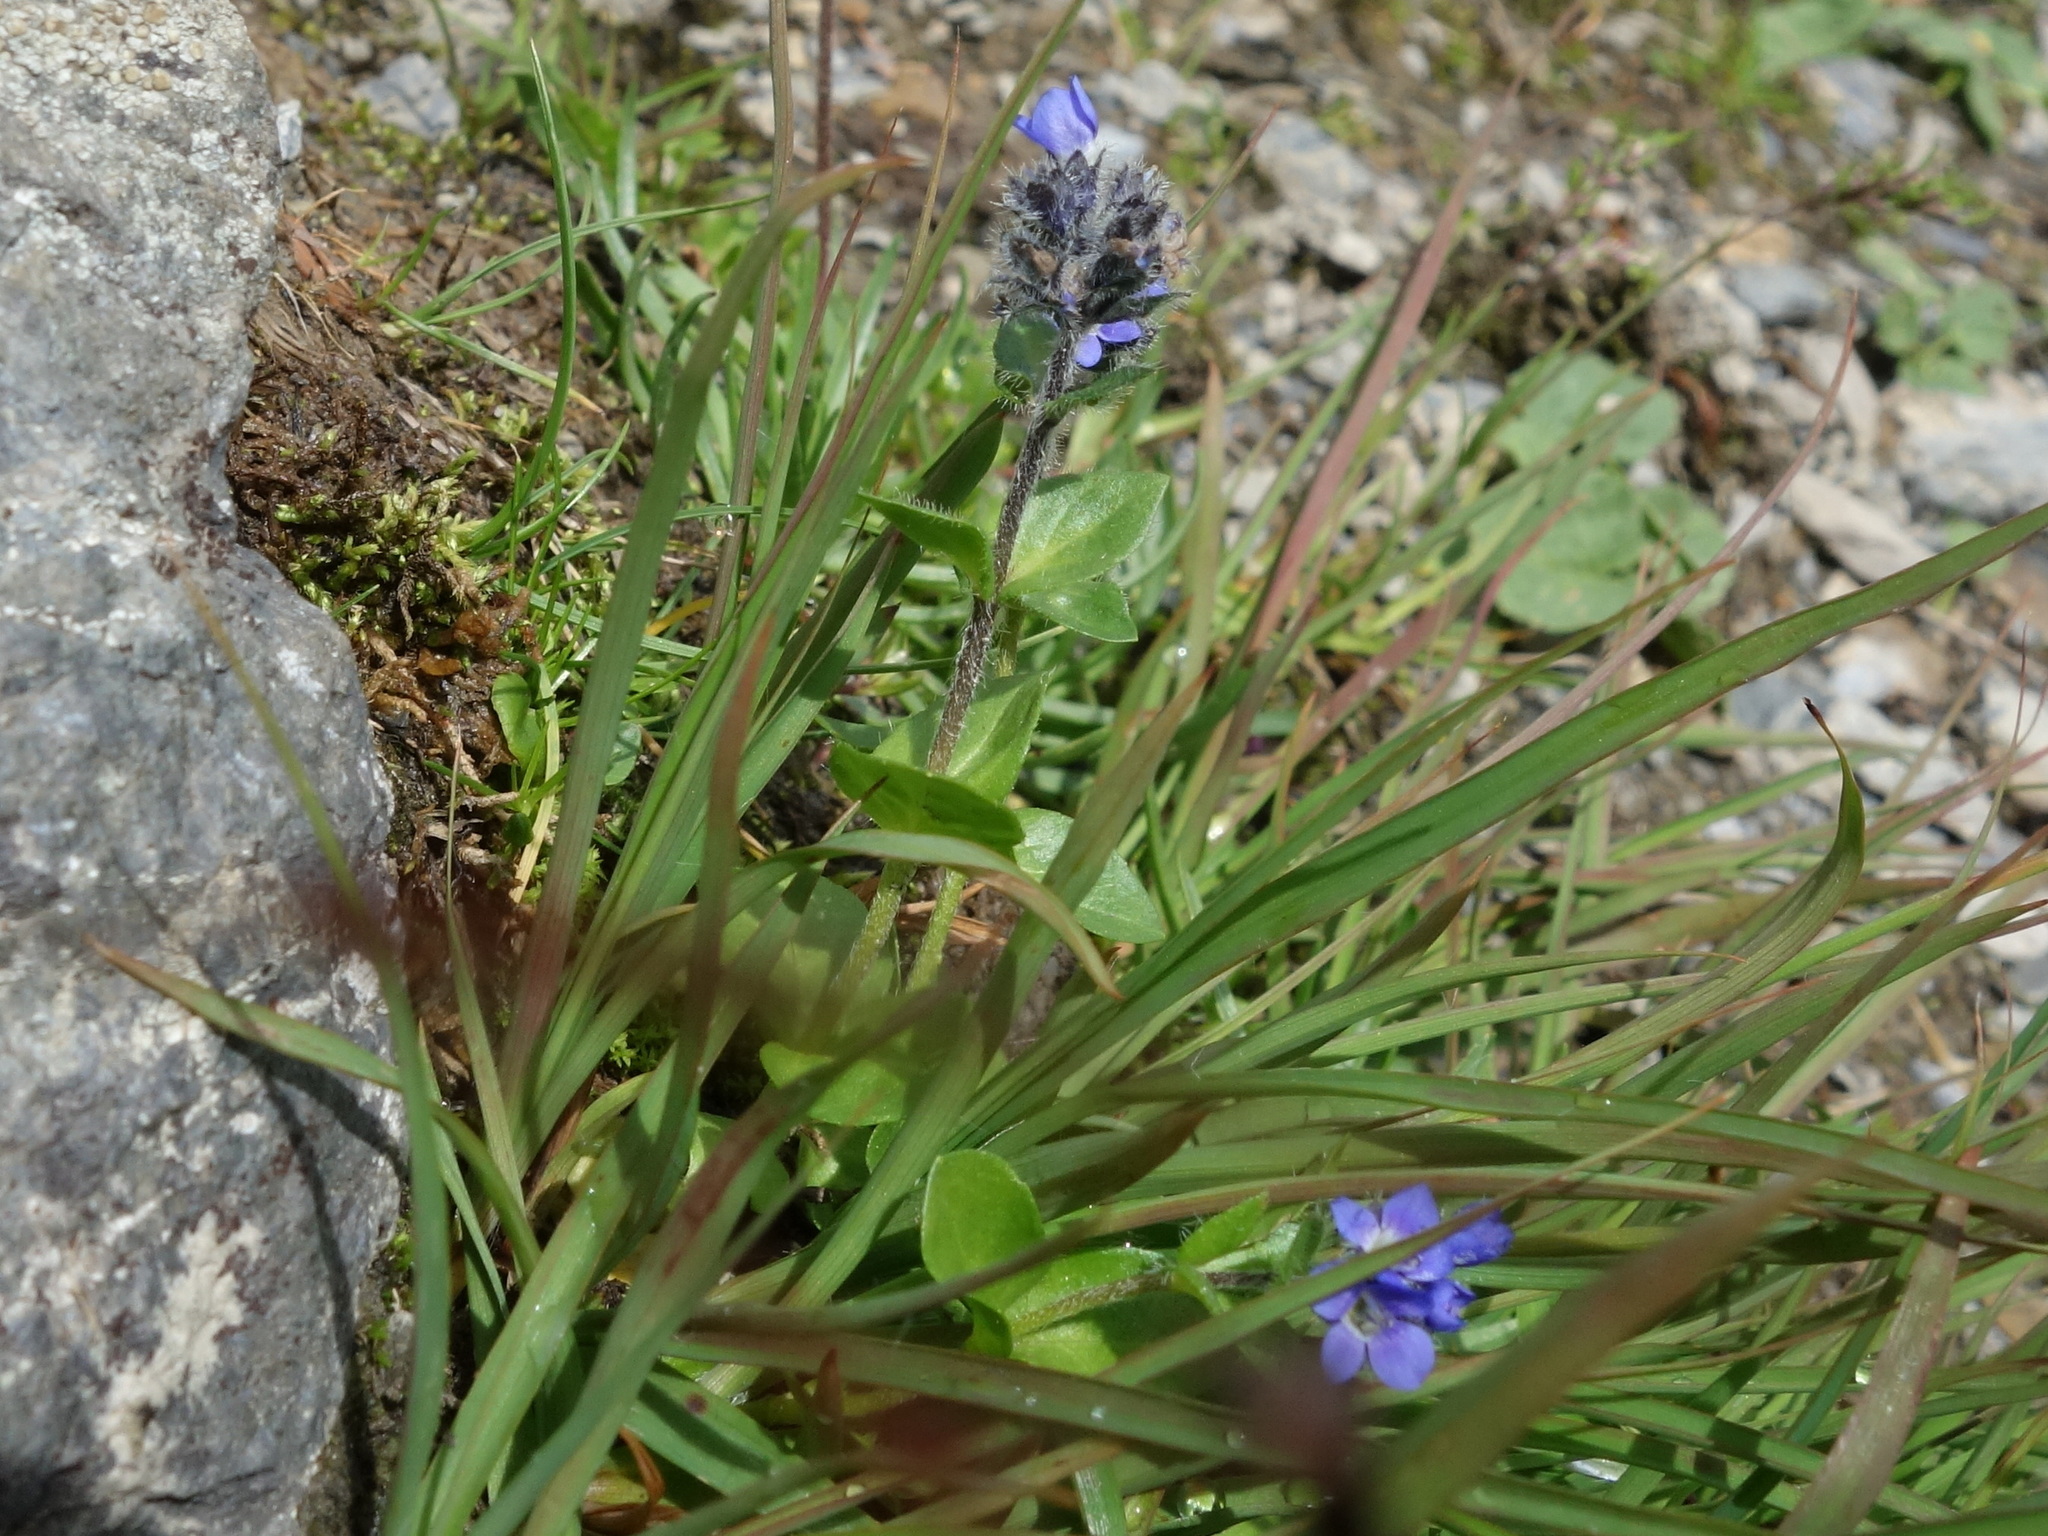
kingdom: Plantae
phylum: Tracheophyta
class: Magnoliopsida
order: Lamiales
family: Plantaginaceae
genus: Veronica
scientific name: Veronica alpina
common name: Alpine speedwell
